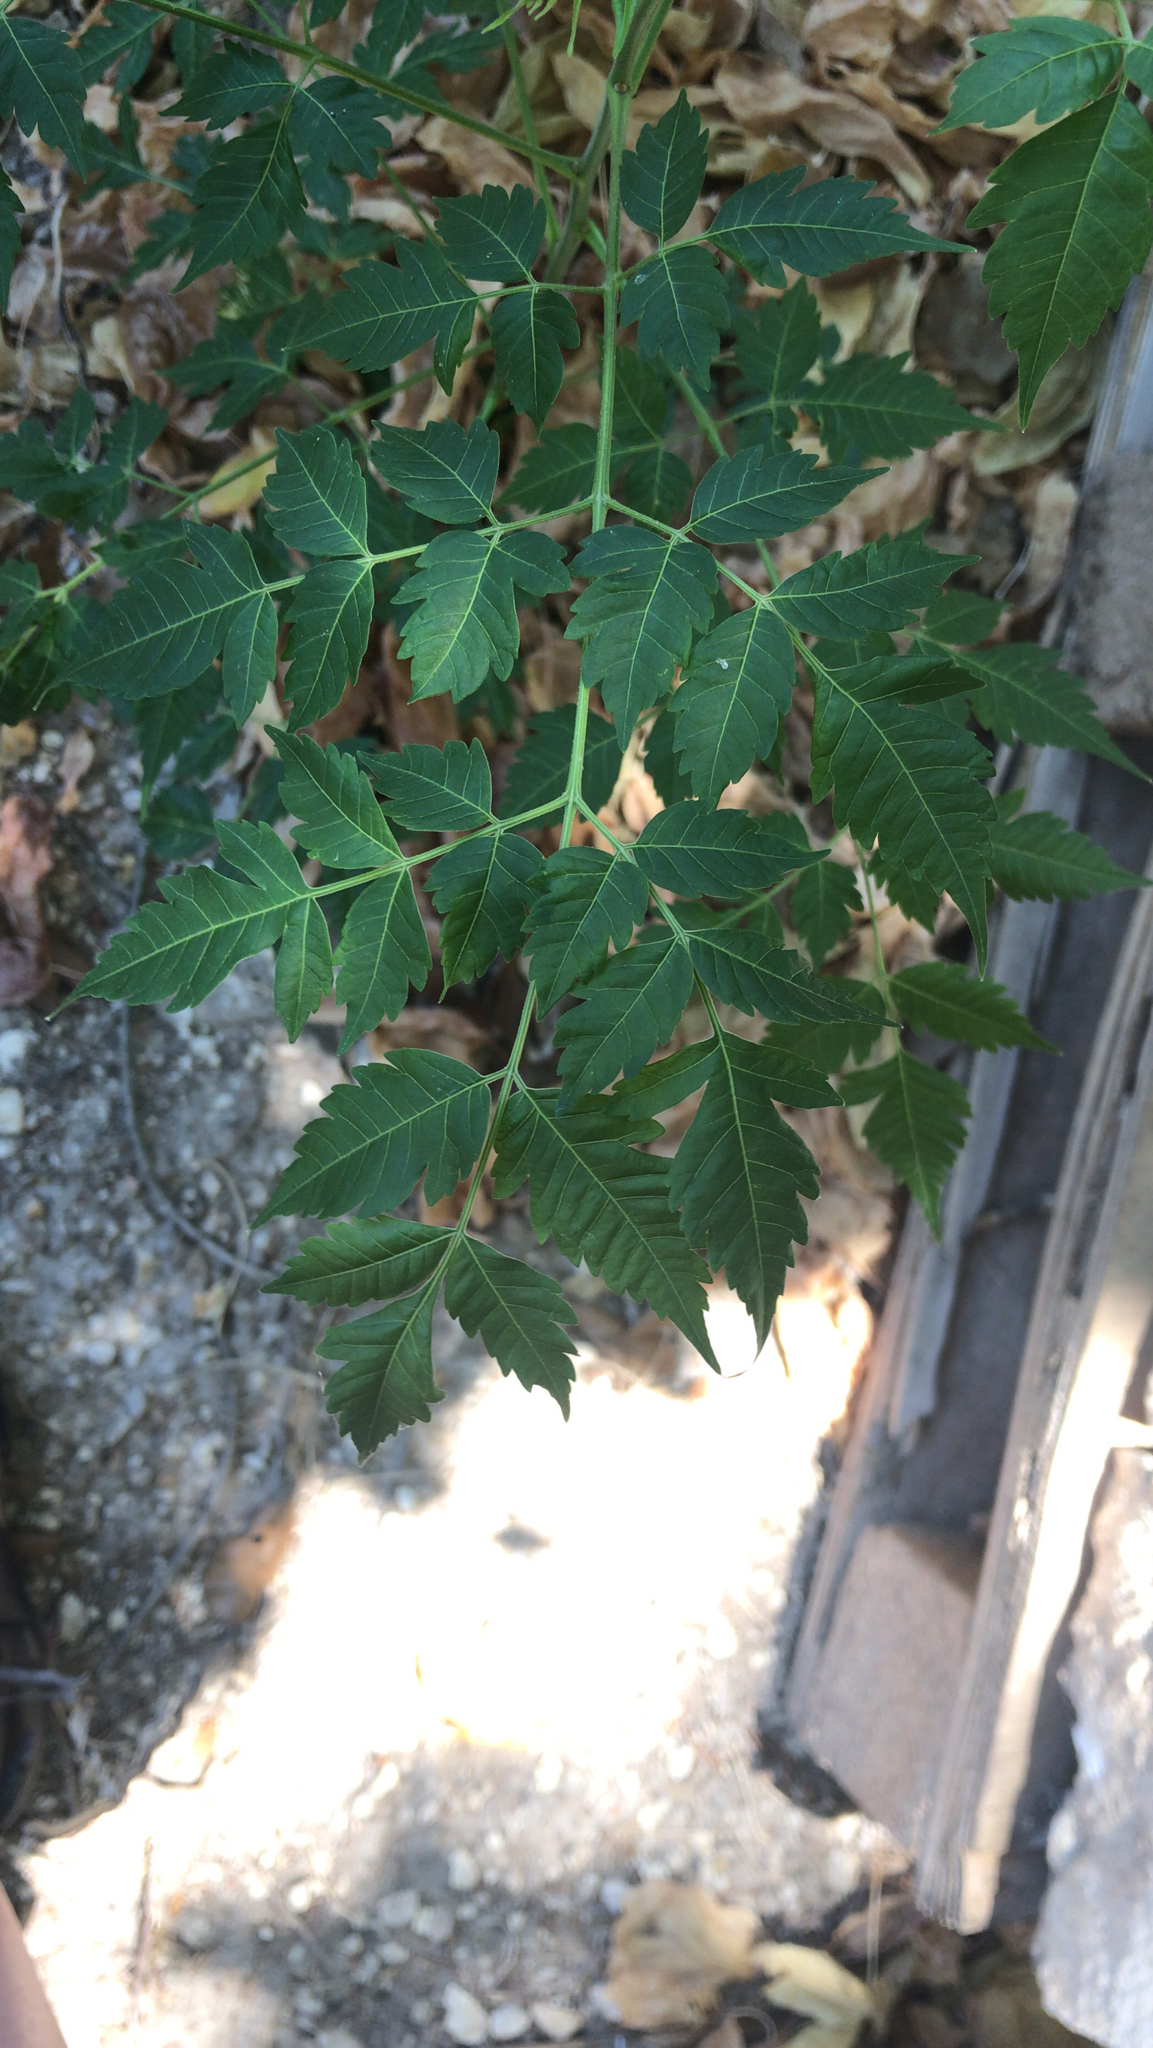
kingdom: Plantae
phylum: Tracheophyta
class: Magnoliopsida
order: Sapindales
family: Meliaceae
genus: Melia
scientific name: Melia azedarach
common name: Chinaberrytree
